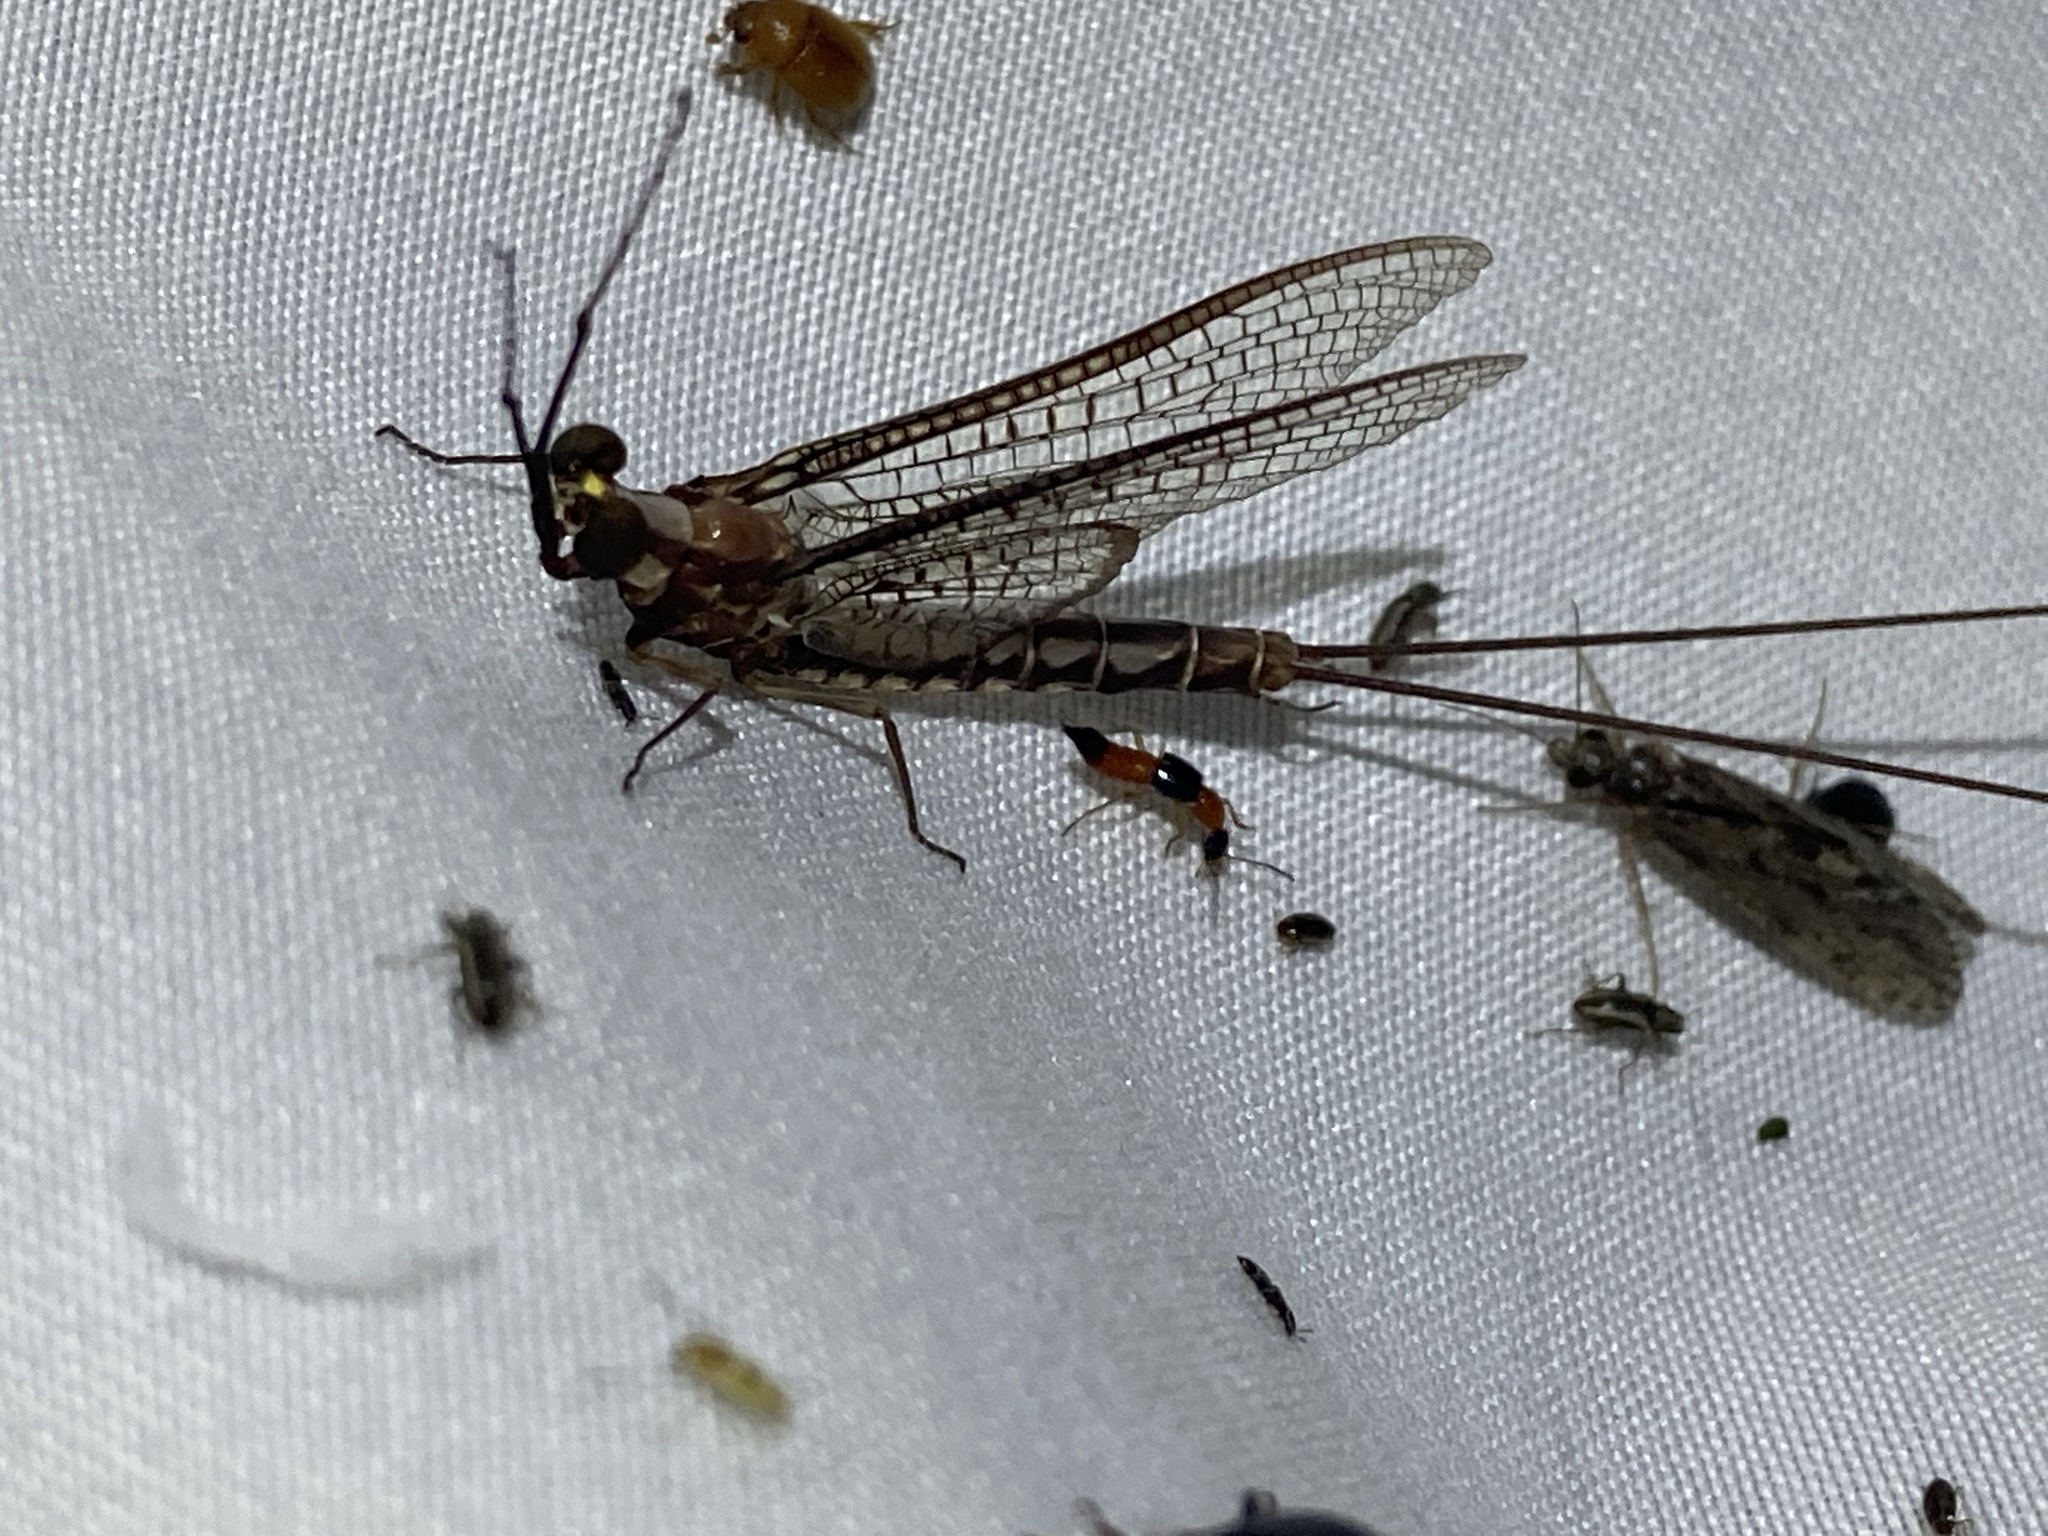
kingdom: Animalia
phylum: Arthropoda
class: Insecta
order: Ephemeroptera
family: Ephemeridae
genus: Hexagenia
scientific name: Hexagenia bilineata
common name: Emergent mayfly
